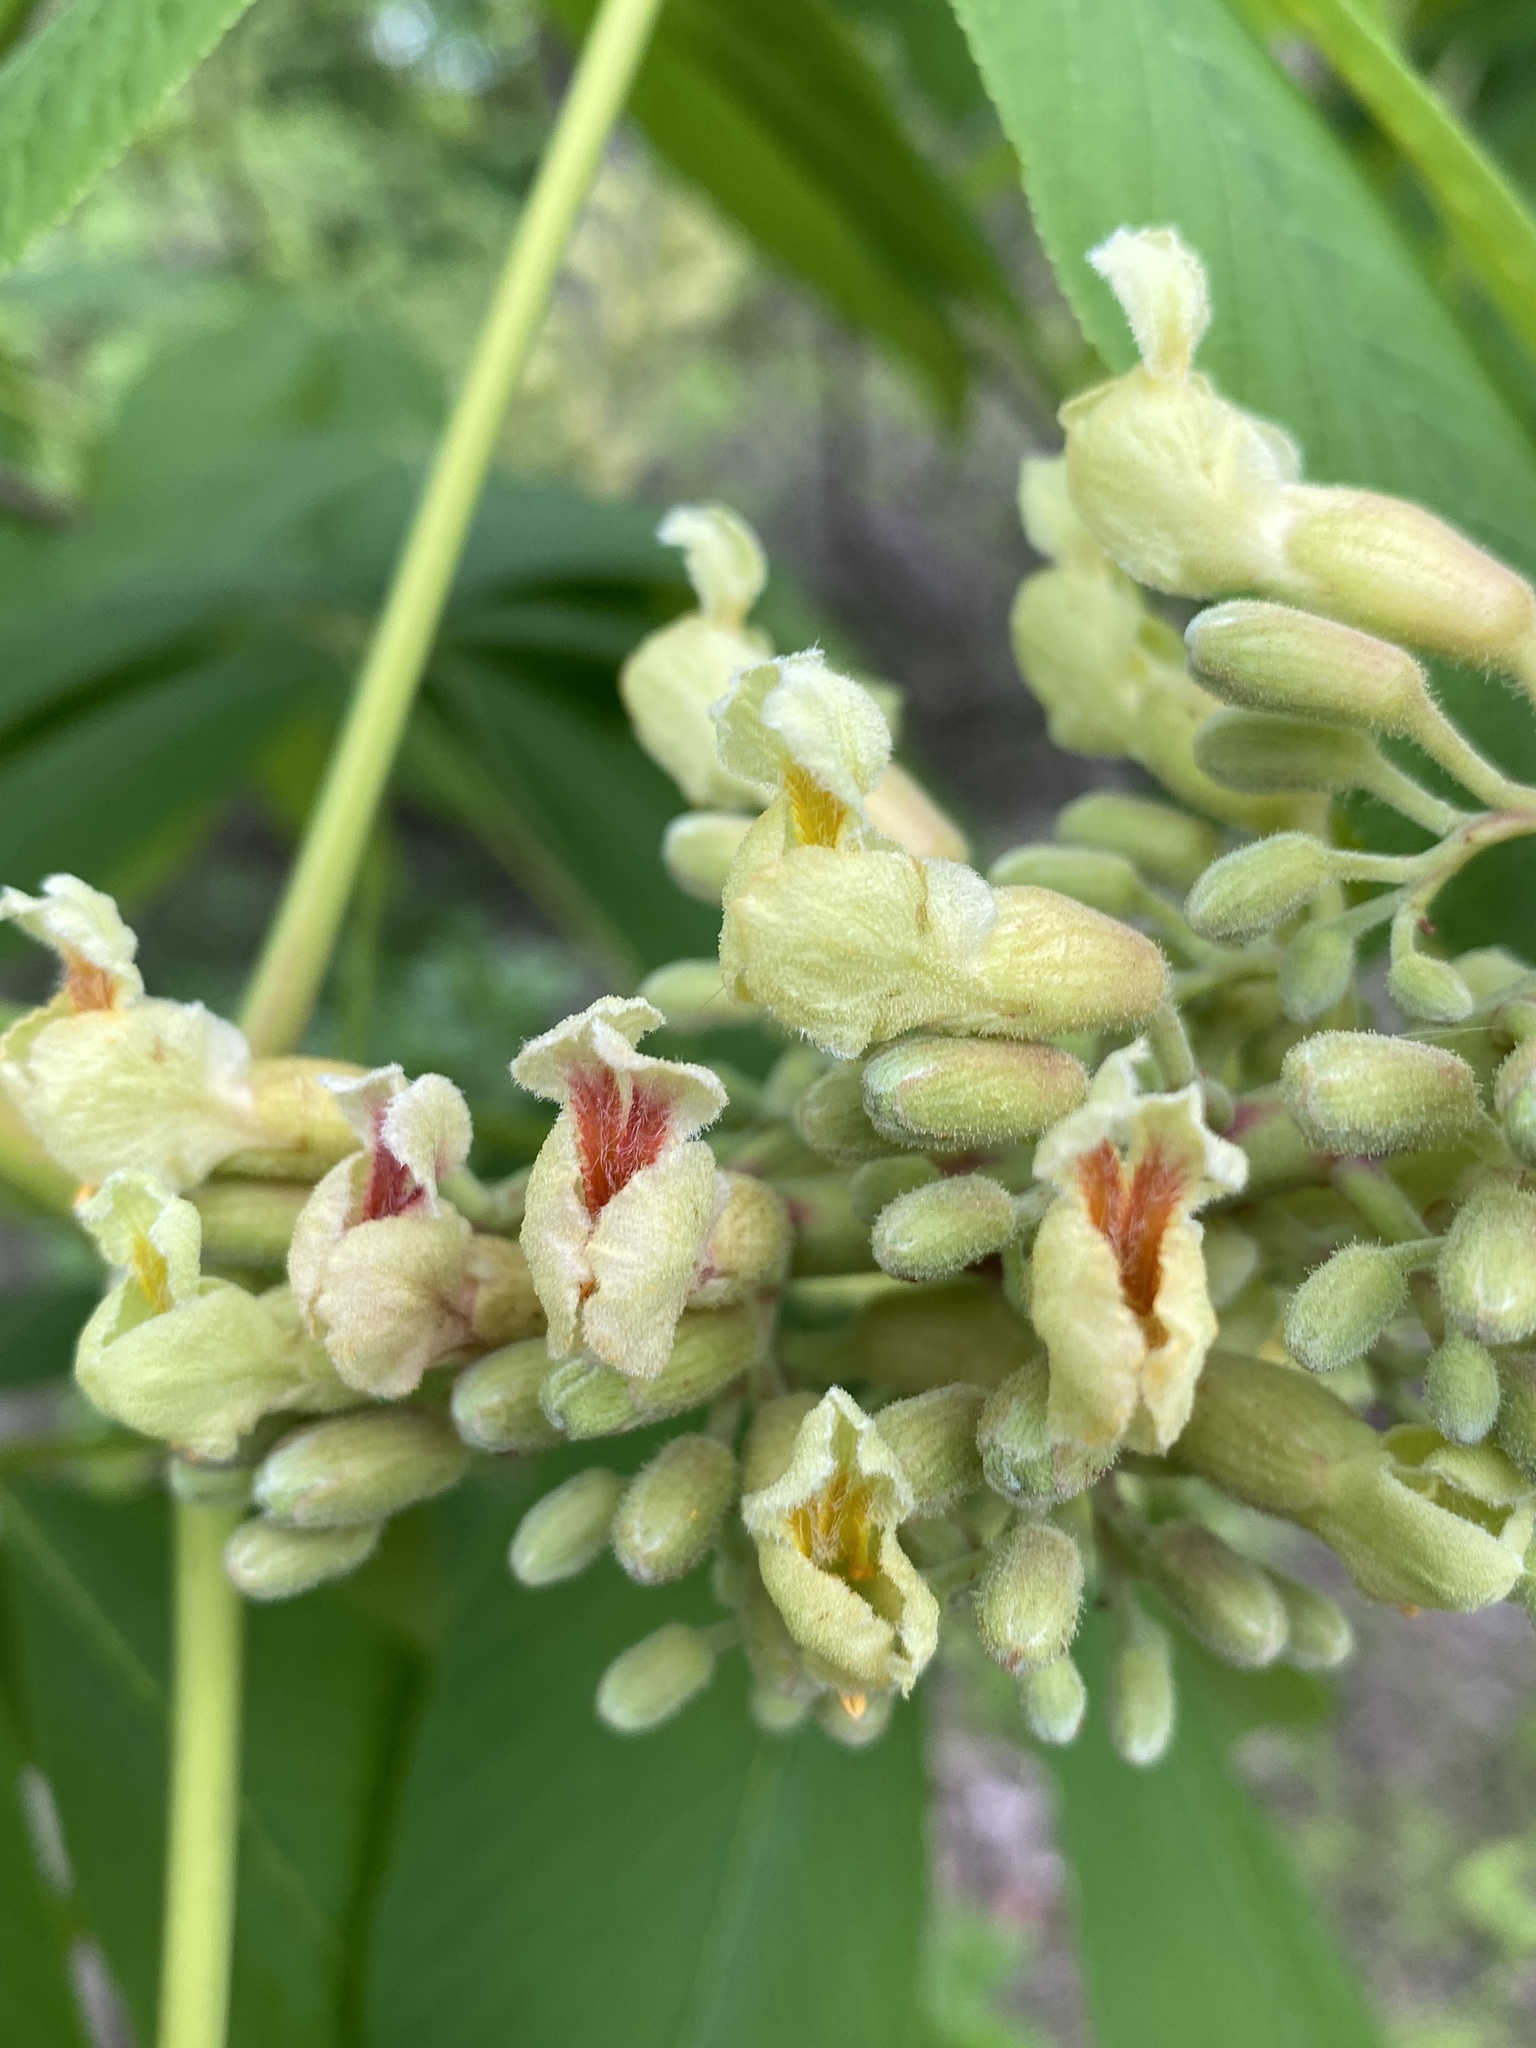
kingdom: Plantae
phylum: Tracheophyta
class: Magnoliopsida
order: Sapindales
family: Sapindaceae
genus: Aesculus
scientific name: Aesculus flava
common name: Yellow buckeye
